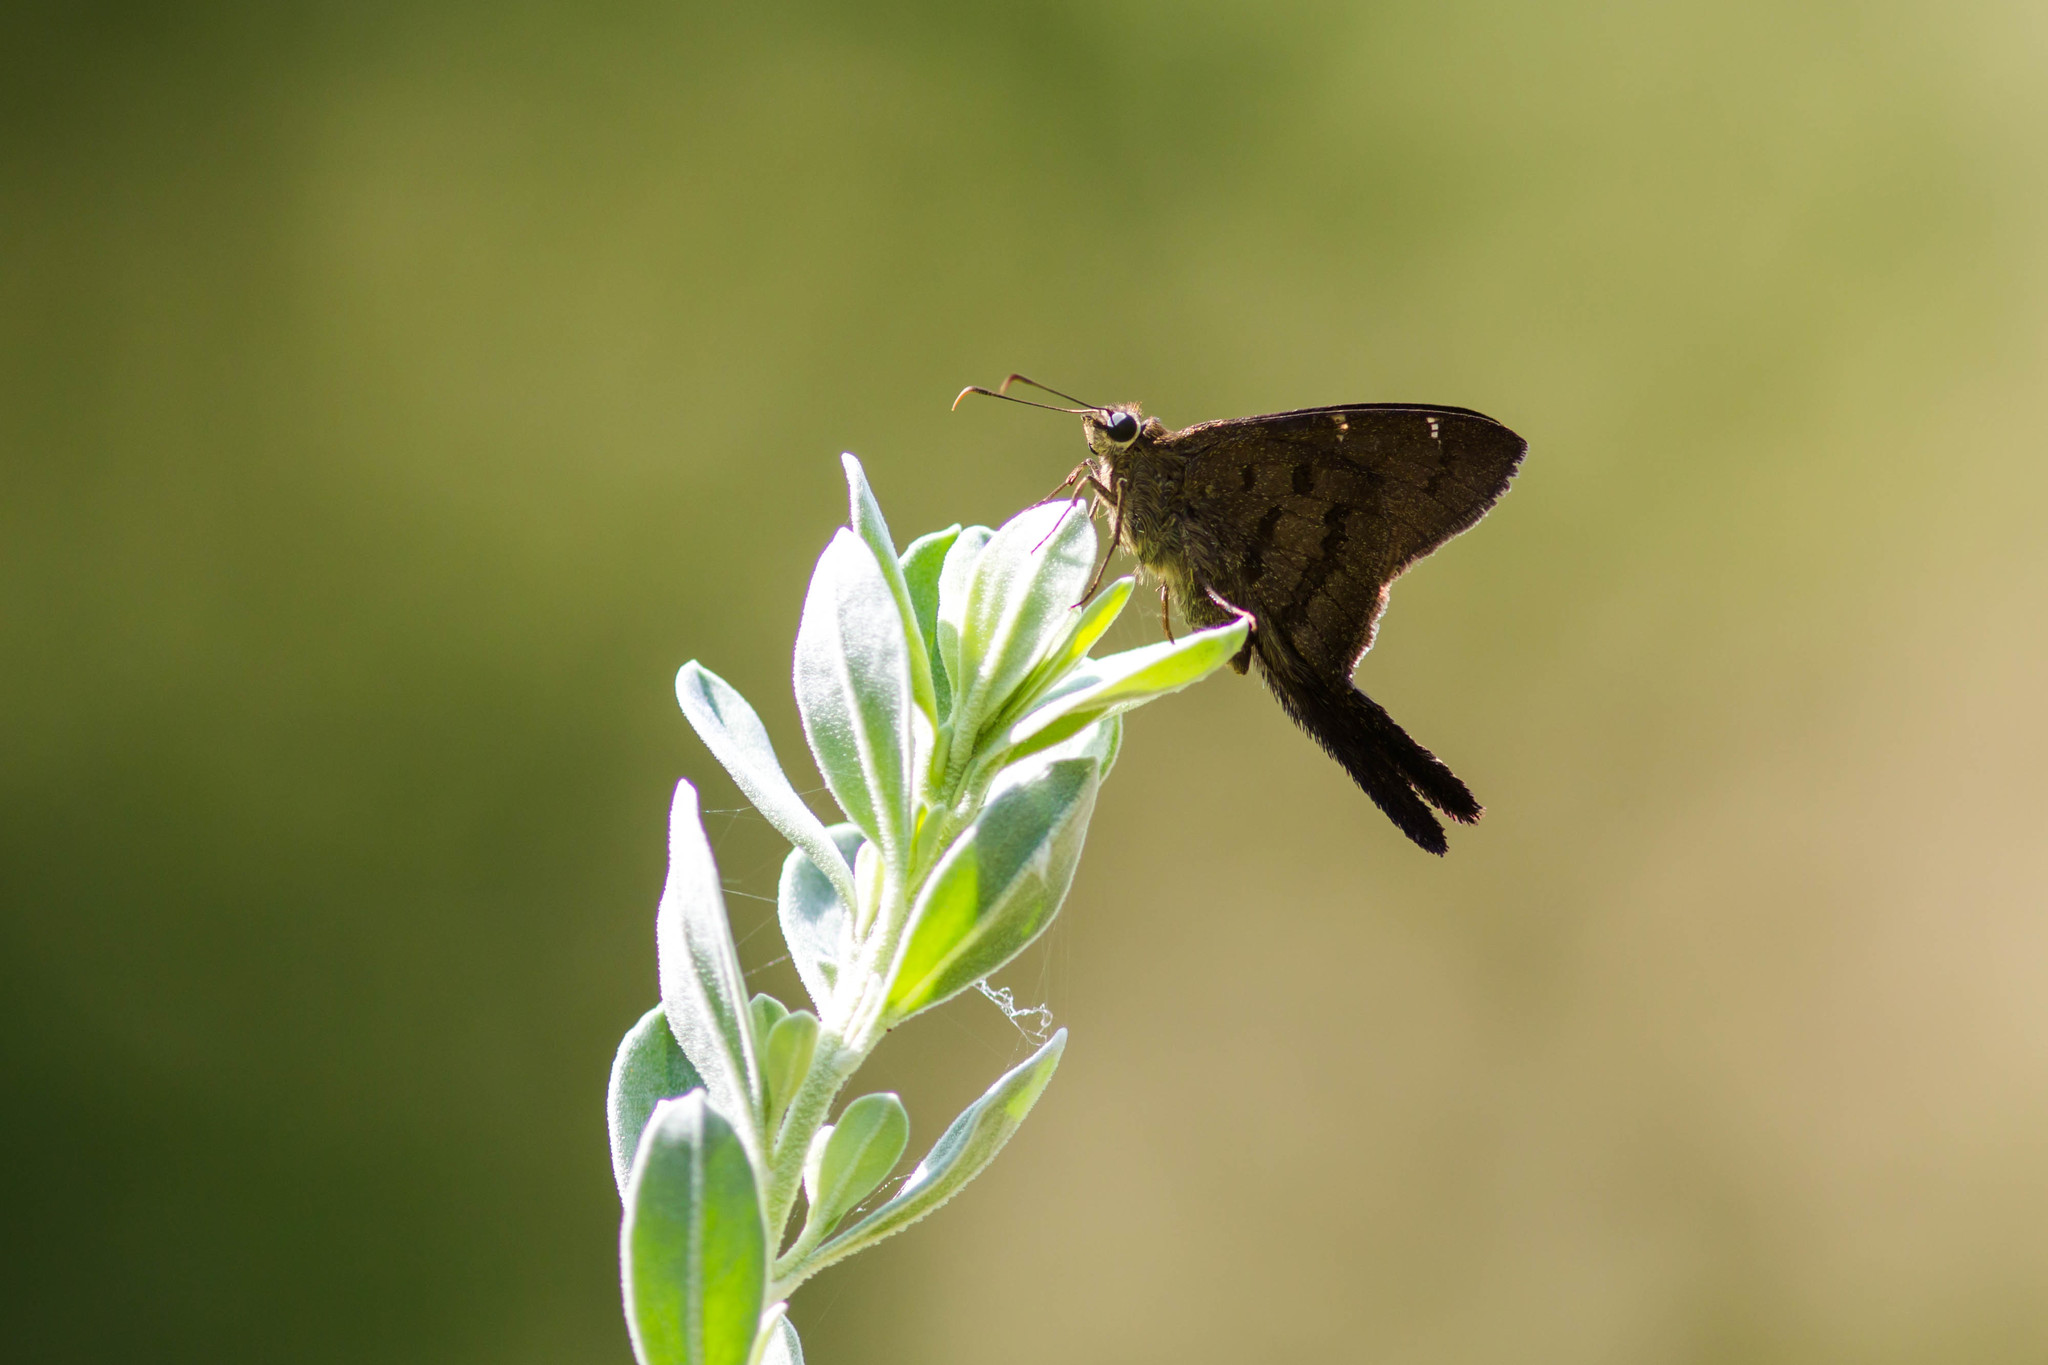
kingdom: Animalia
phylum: Arthropoda
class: Insecta
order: Lepidoptera
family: Hesperiidae
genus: Urbanus
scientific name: Urbanus procne
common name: Brown longtail
